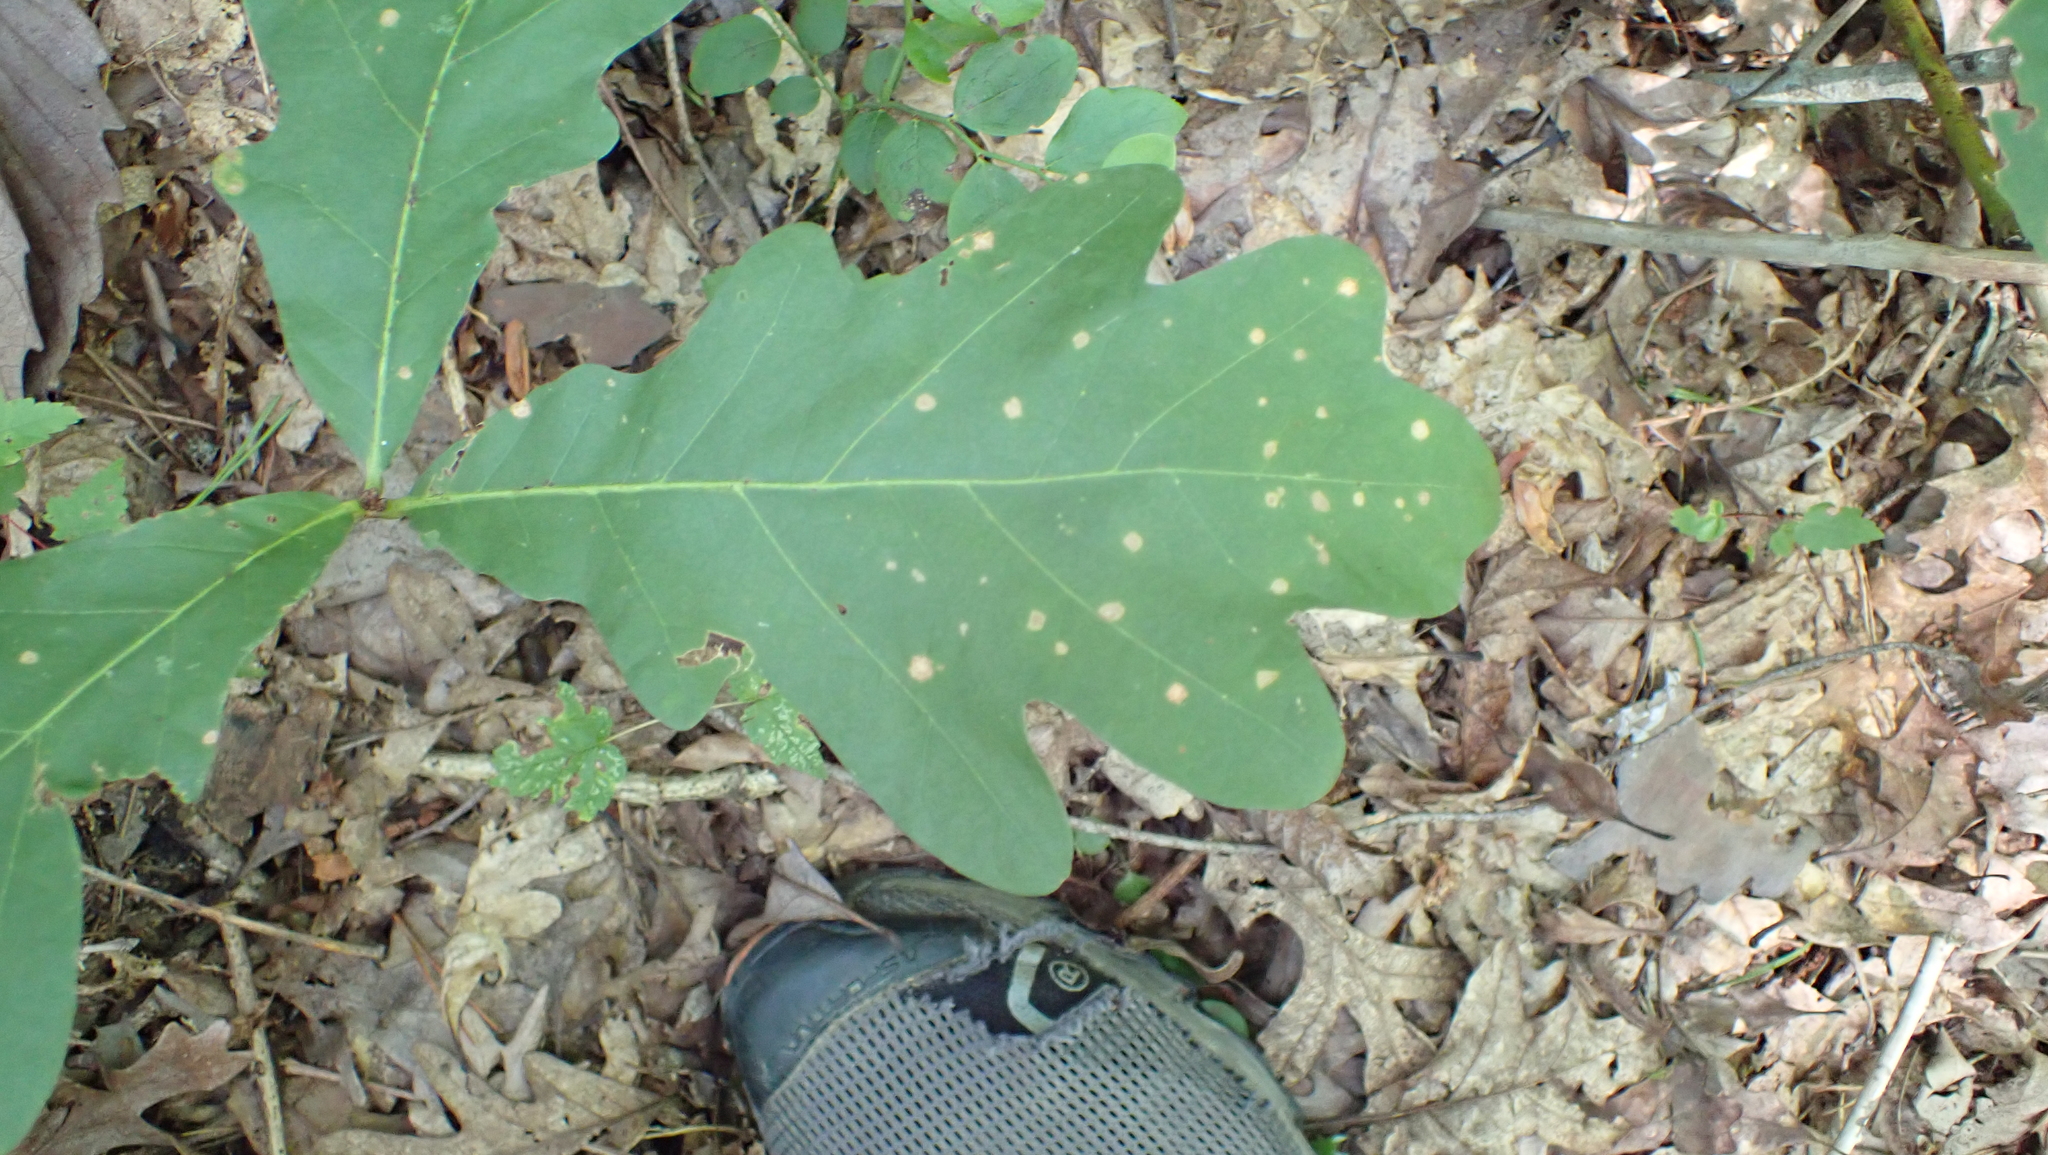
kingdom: Plantae
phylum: Tracheophyta
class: Magnoliopsida
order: Fagales
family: Fagaceae
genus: Quercus
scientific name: Quercus alba
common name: White oak
